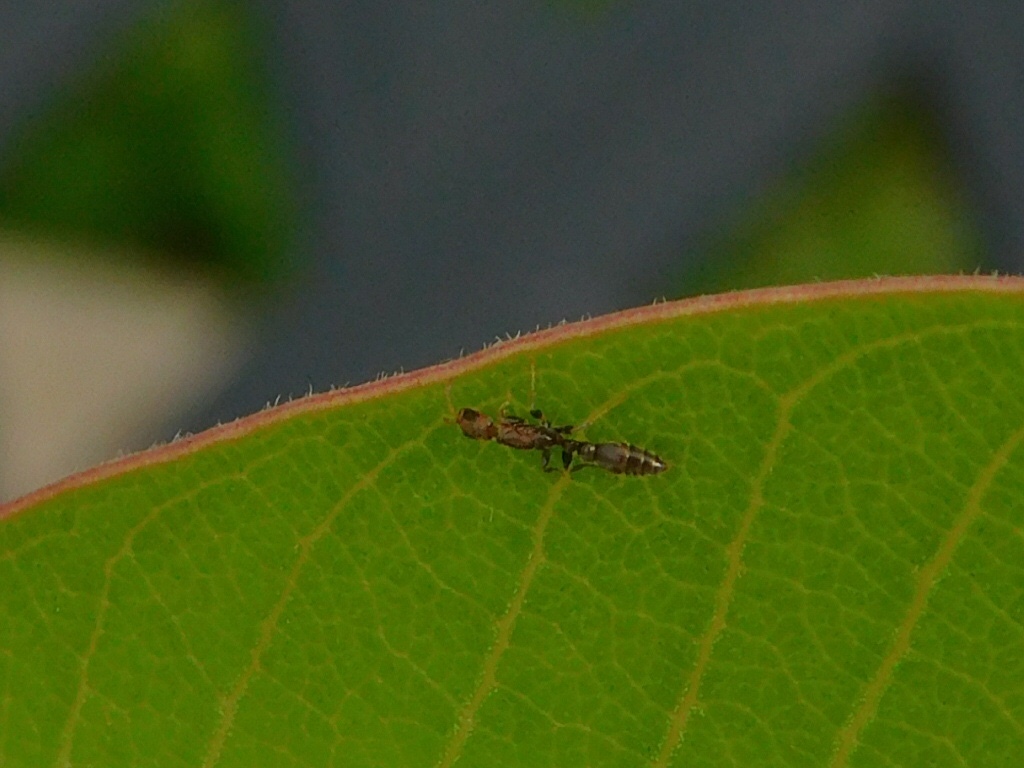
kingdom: Animalia
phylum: Arthropoda
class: Insecta
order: Hymenoptera
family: Formicidae
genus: Pseudomyrmex
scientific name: Pseudomyrmex cubaensis
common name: Ant
